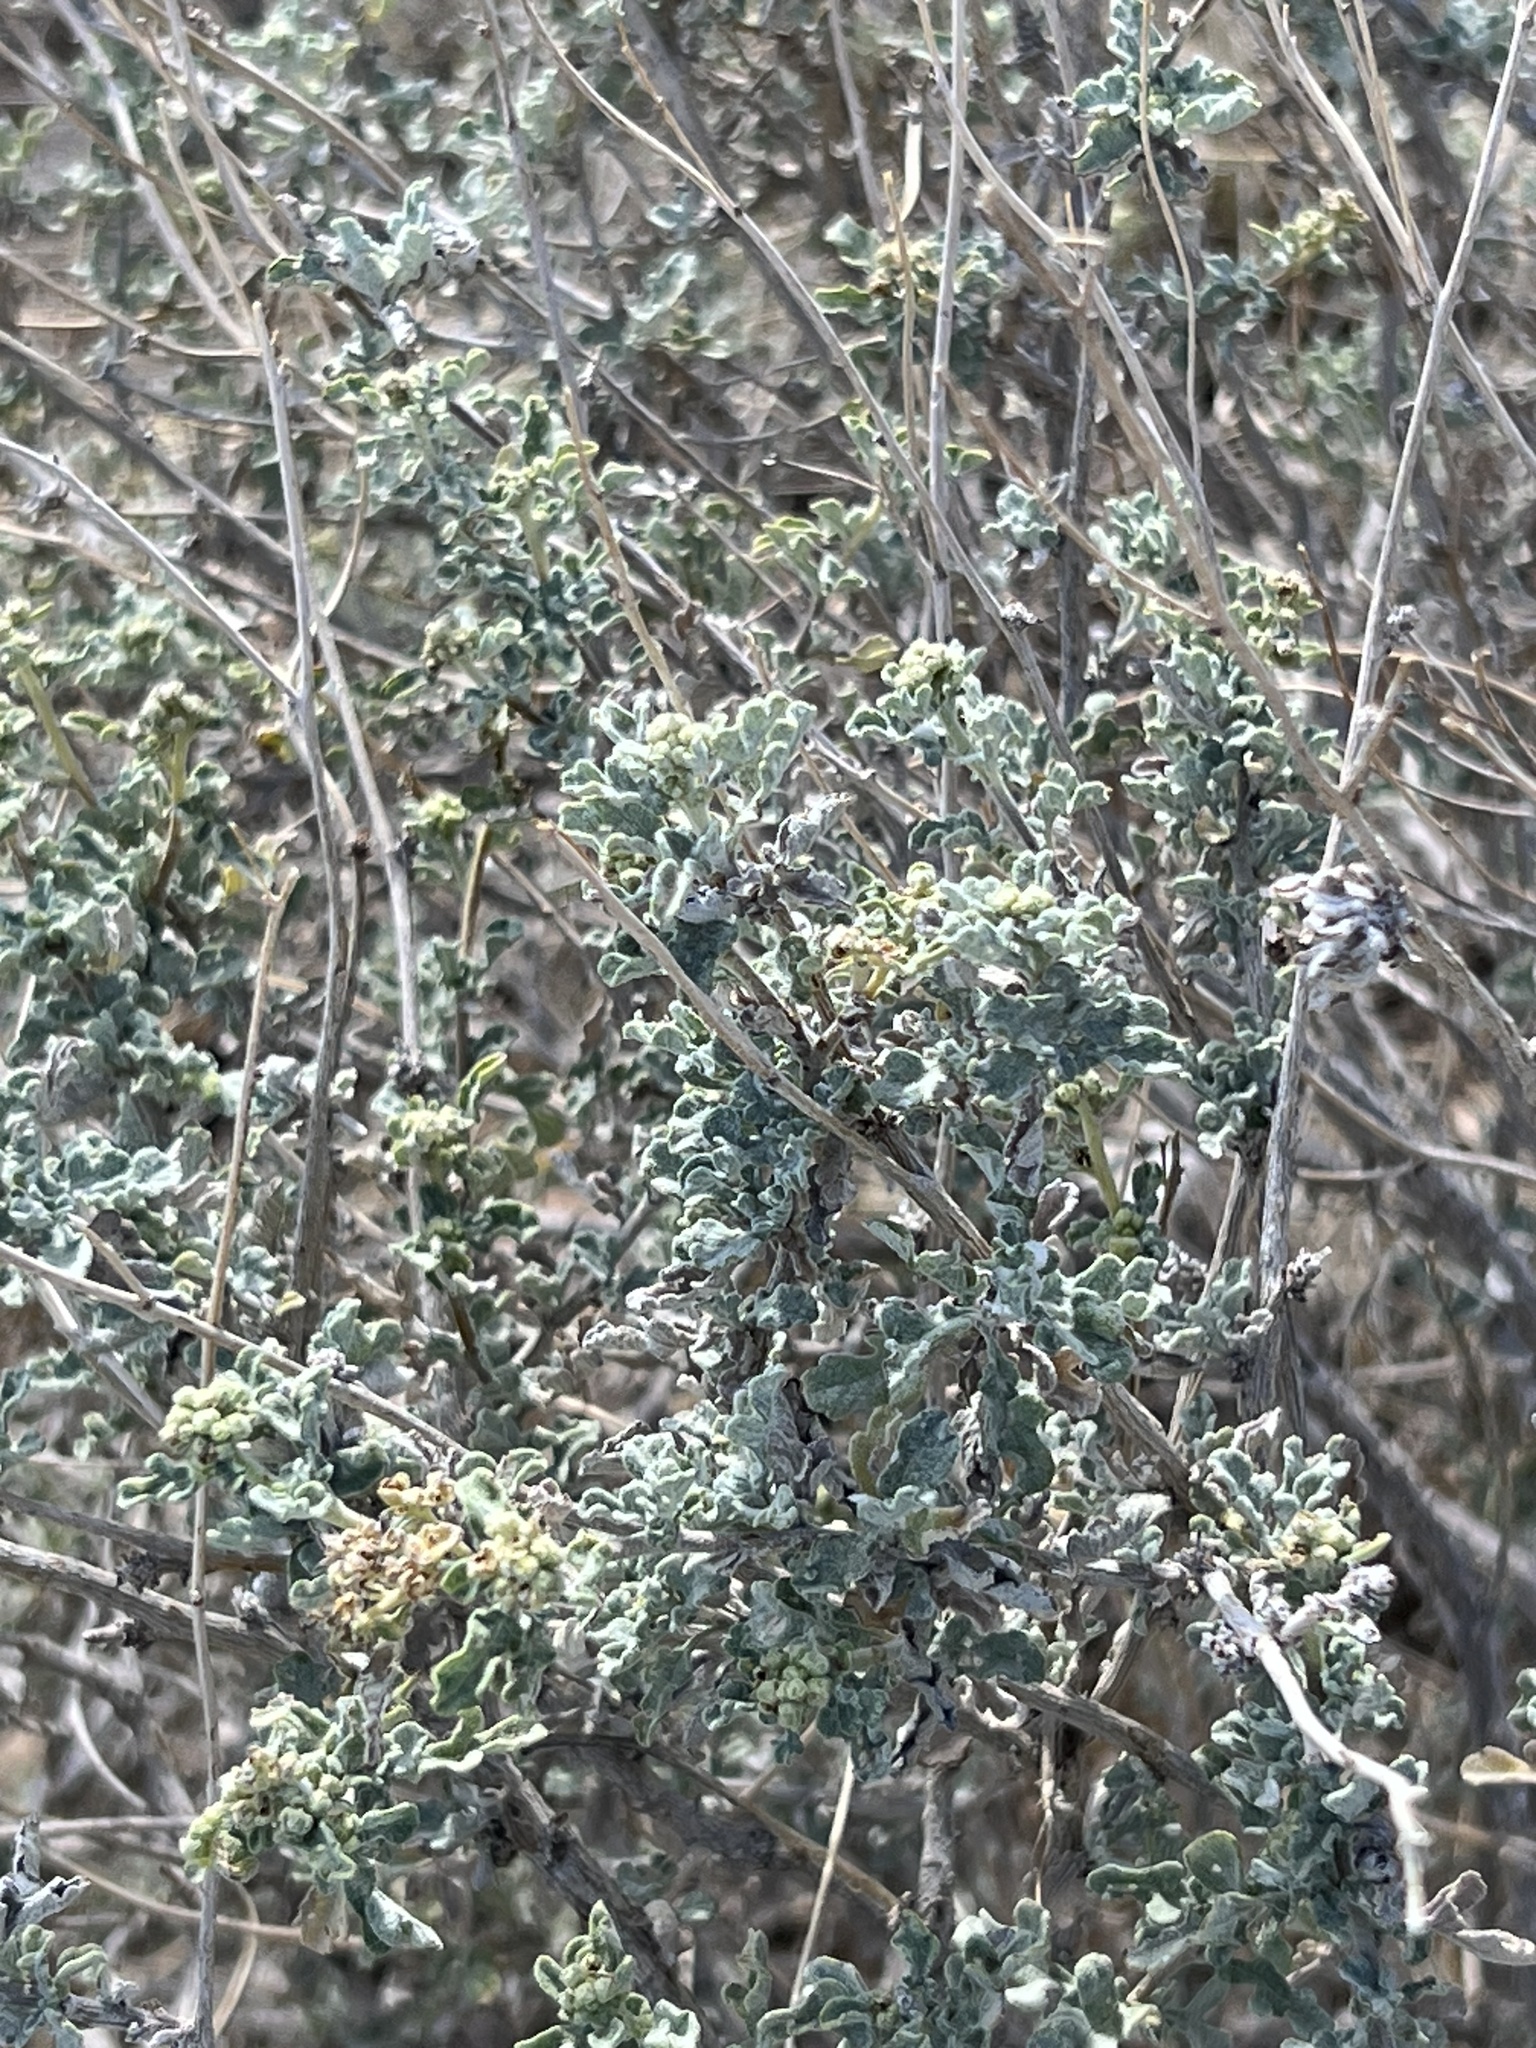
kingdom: Plantae
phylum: Tracheophyta
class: Magnoliopsida
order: Asterales
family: Asteraceae
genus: Parthenium
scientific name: Parthenium incanum
